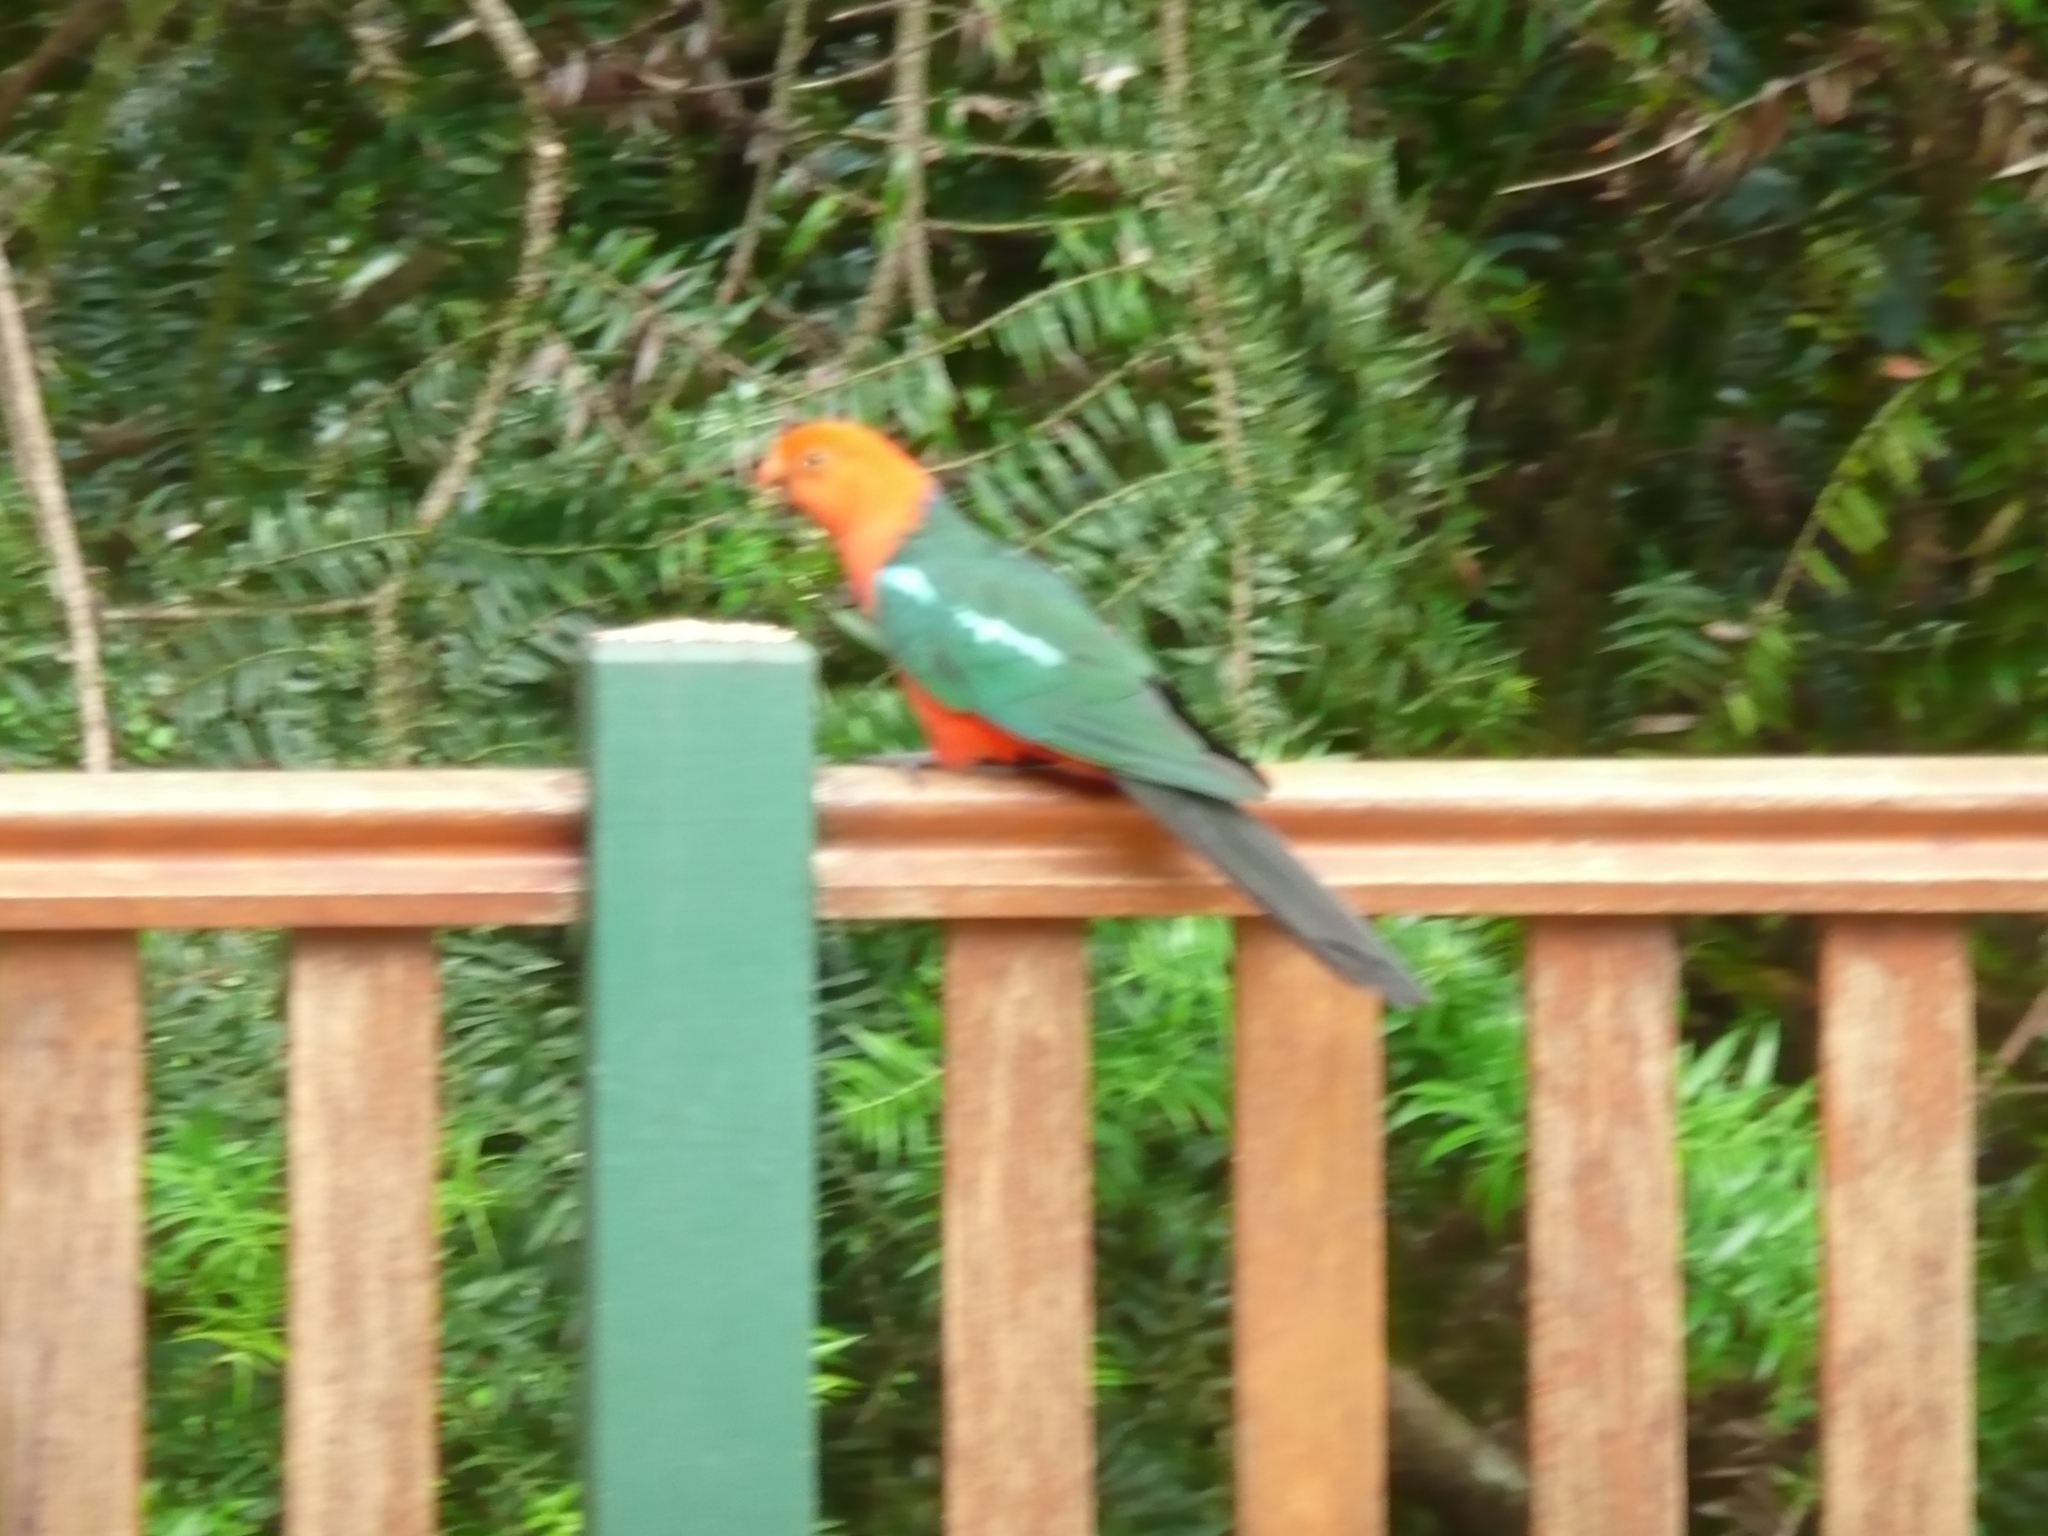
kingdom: Animalia
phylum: Chordata
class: Aves
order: Psittaciformes
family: Psittacidae
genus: Alisterus
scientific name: Alisterus scapularis
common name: Australian king parrot
